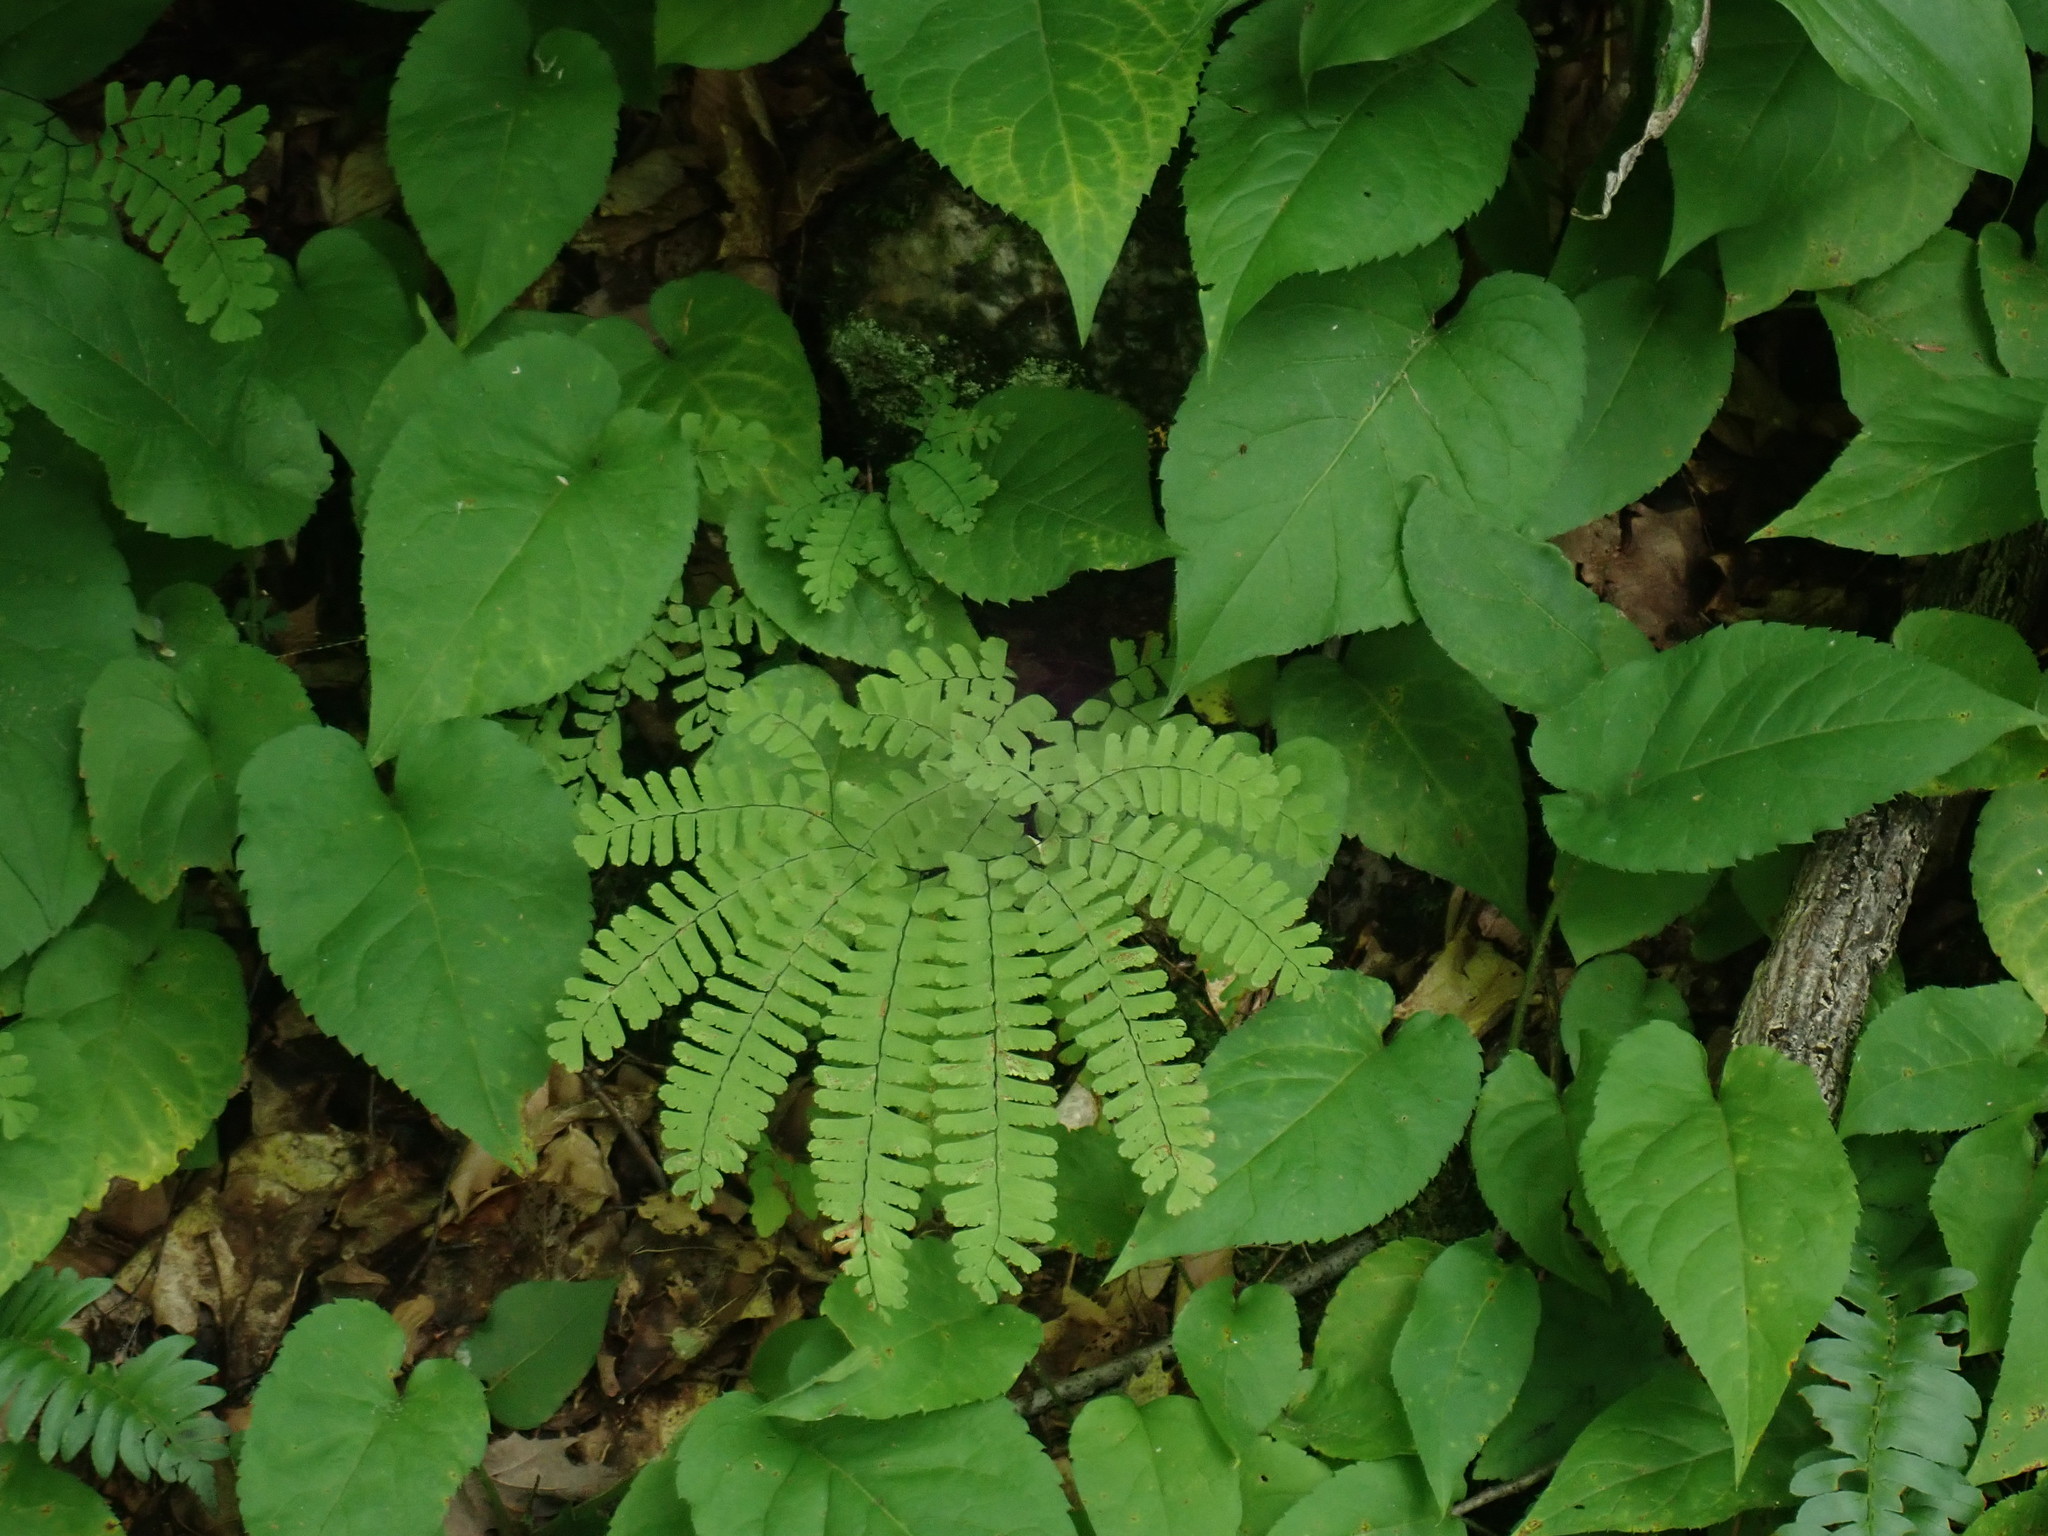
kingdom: Plantae
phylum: Tracheophyta
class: Polypodiopsida
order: Polypodiales
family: Pteridaceae
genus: Adiantum
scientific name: Adiantum pedatum
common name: Five-finger fern
